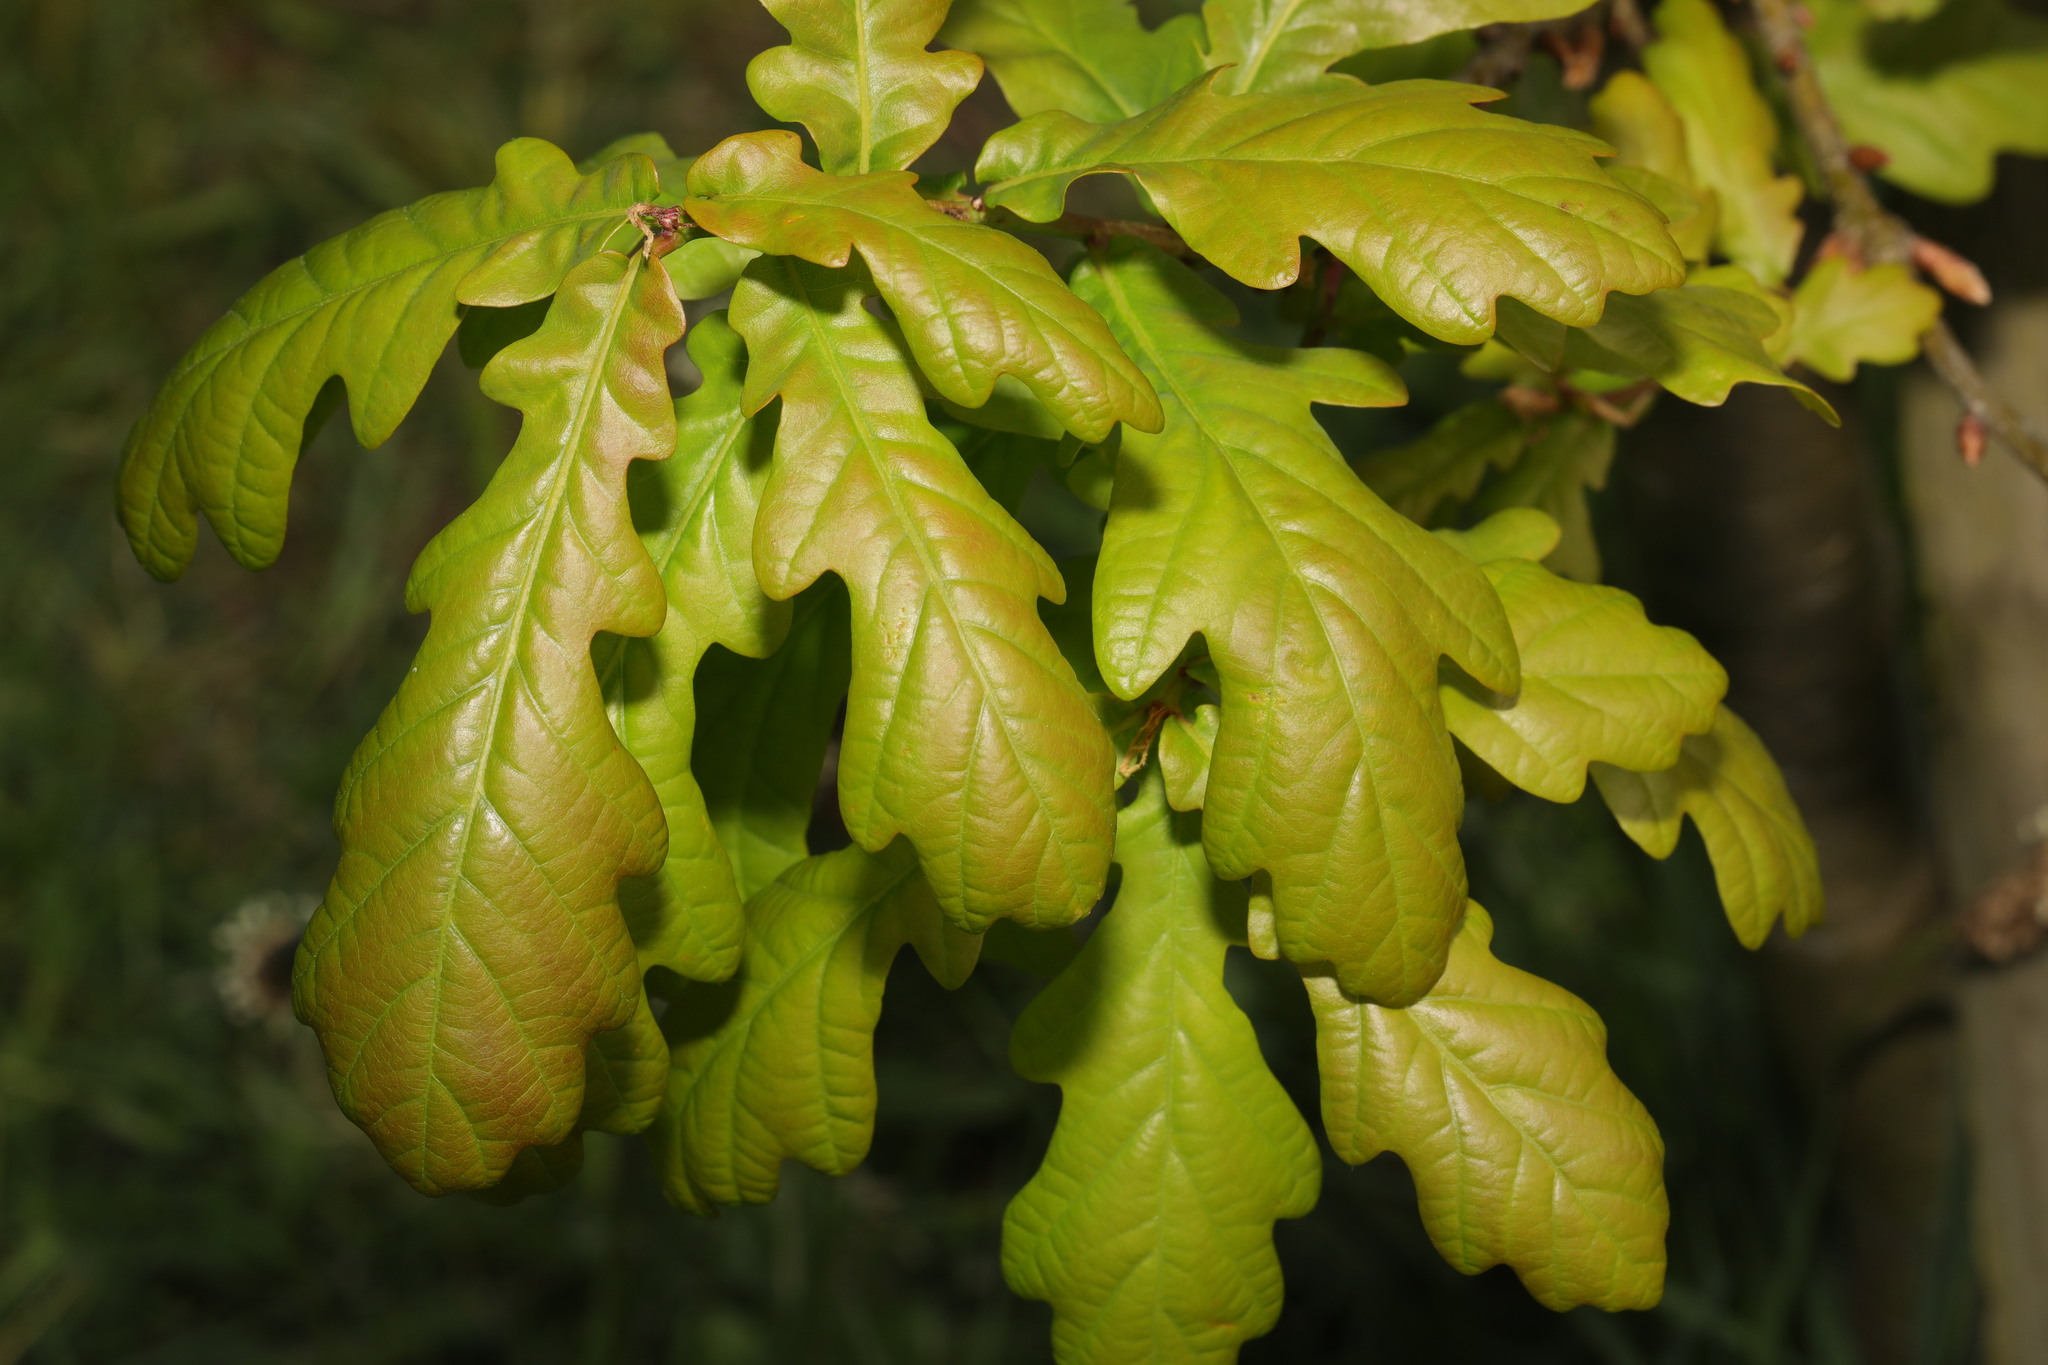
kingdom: Plantae
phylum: Tracheophyta
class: Magnoliopsida
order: Fagales
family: Fagaceae
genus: Quercus
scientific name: Quercus robur
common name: Pedunculate oak
